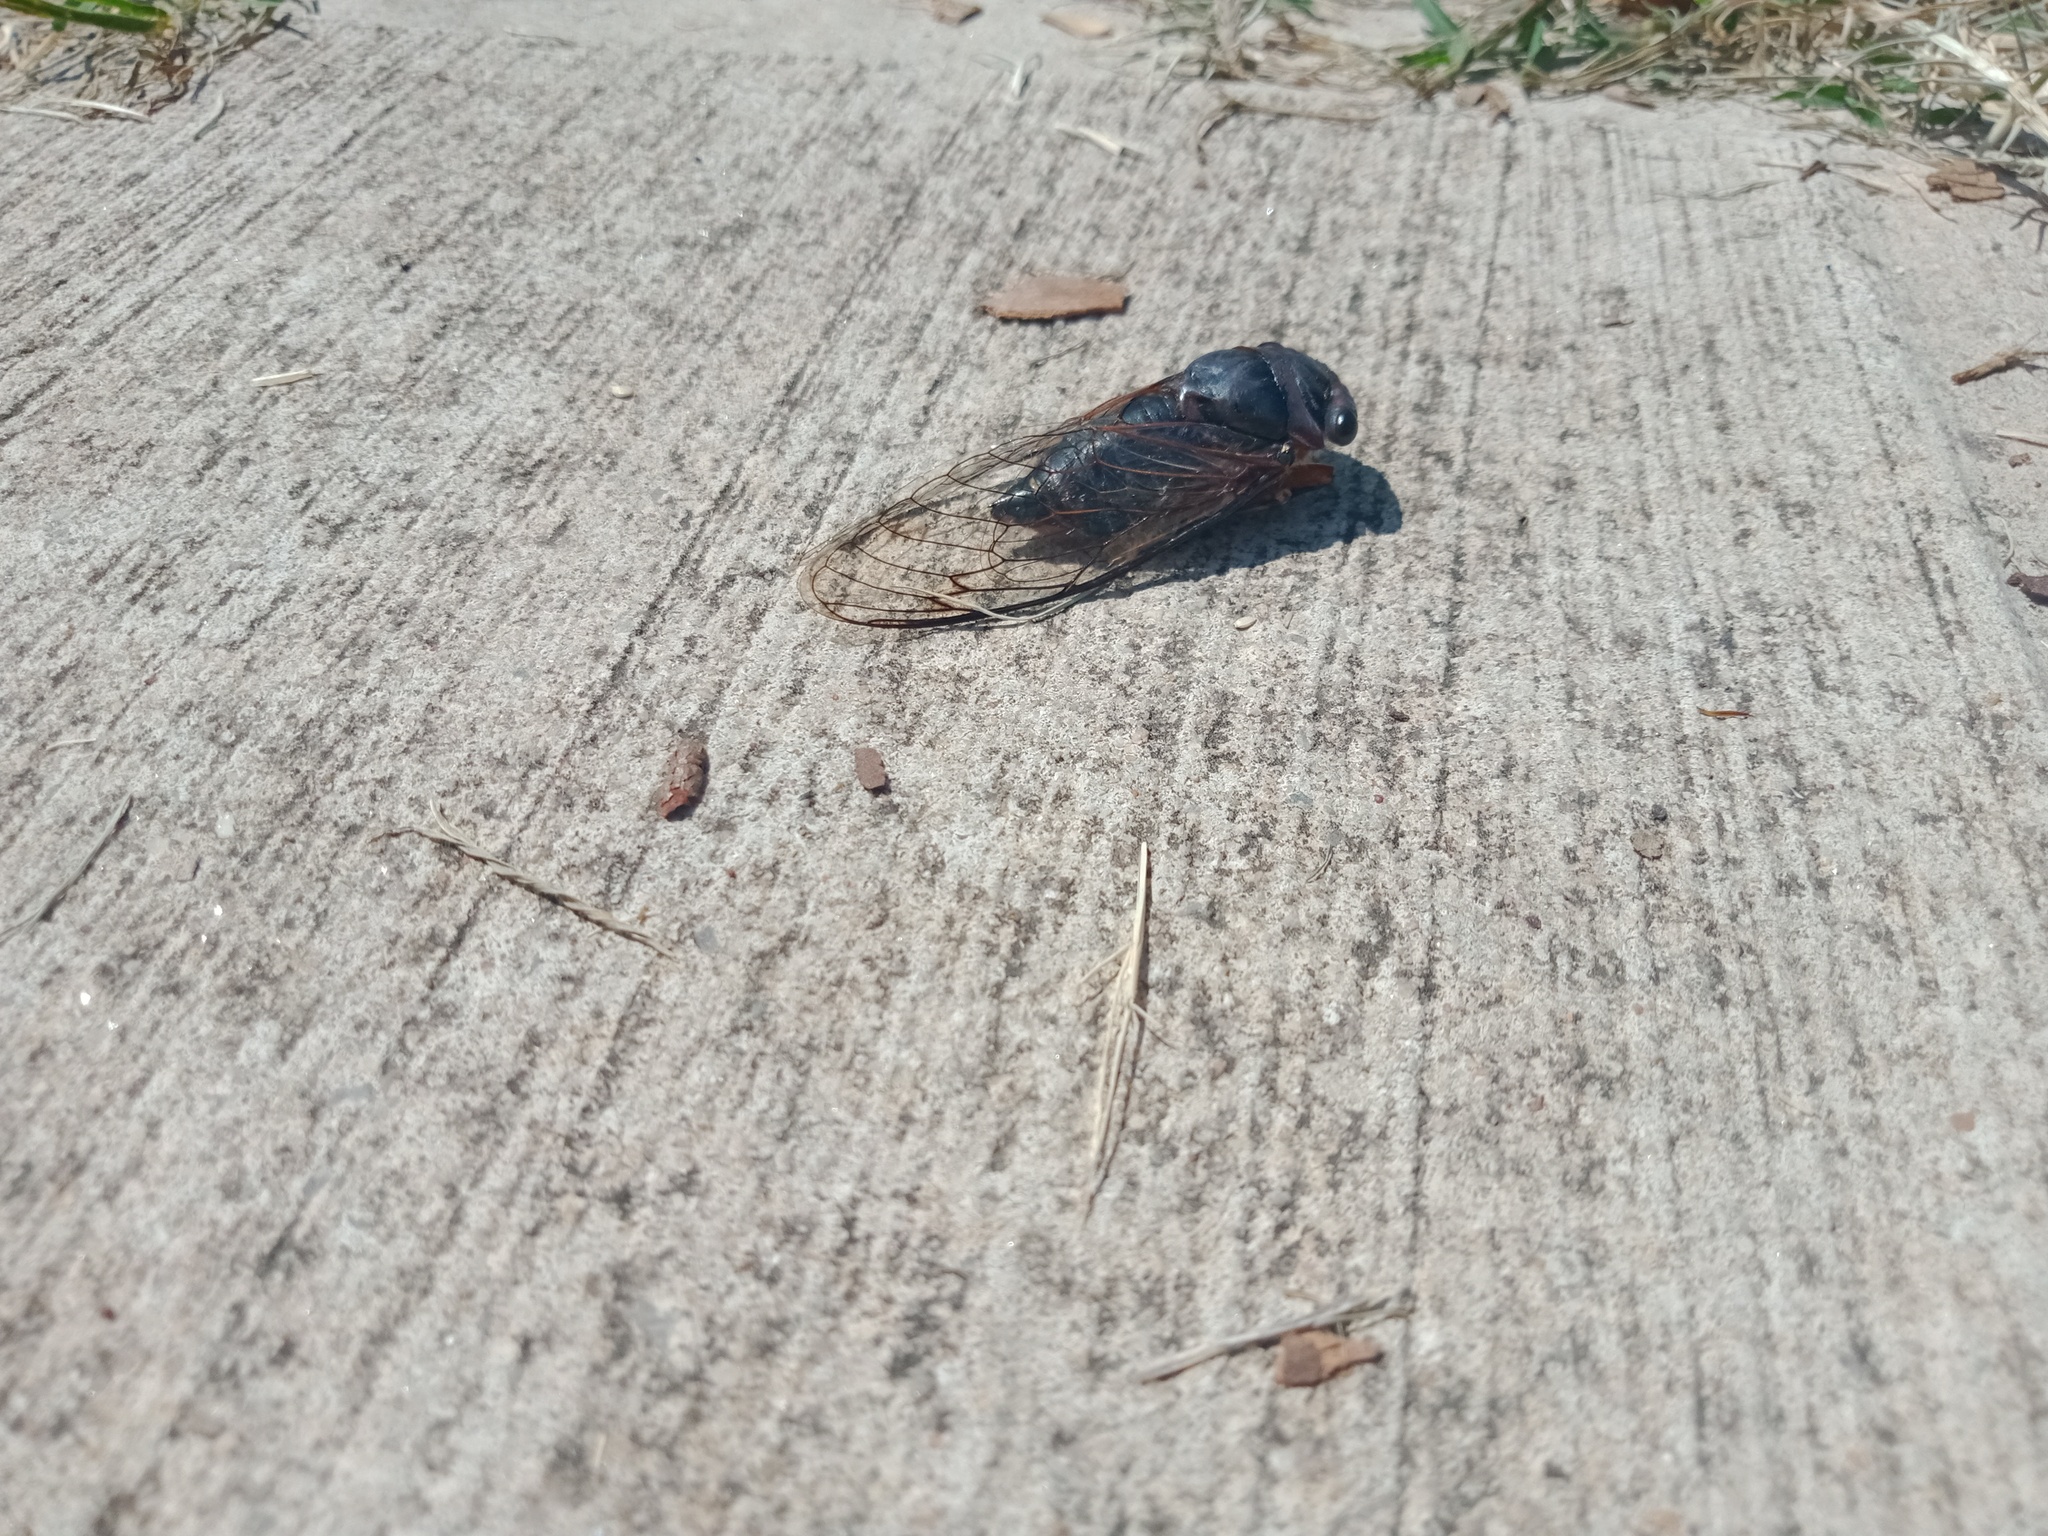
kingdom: Animalia
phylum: Arthropoda
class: Insecta
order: Hemiptera
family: Cicadidae
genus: Psaltoda
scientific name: Psaltoda plaga
